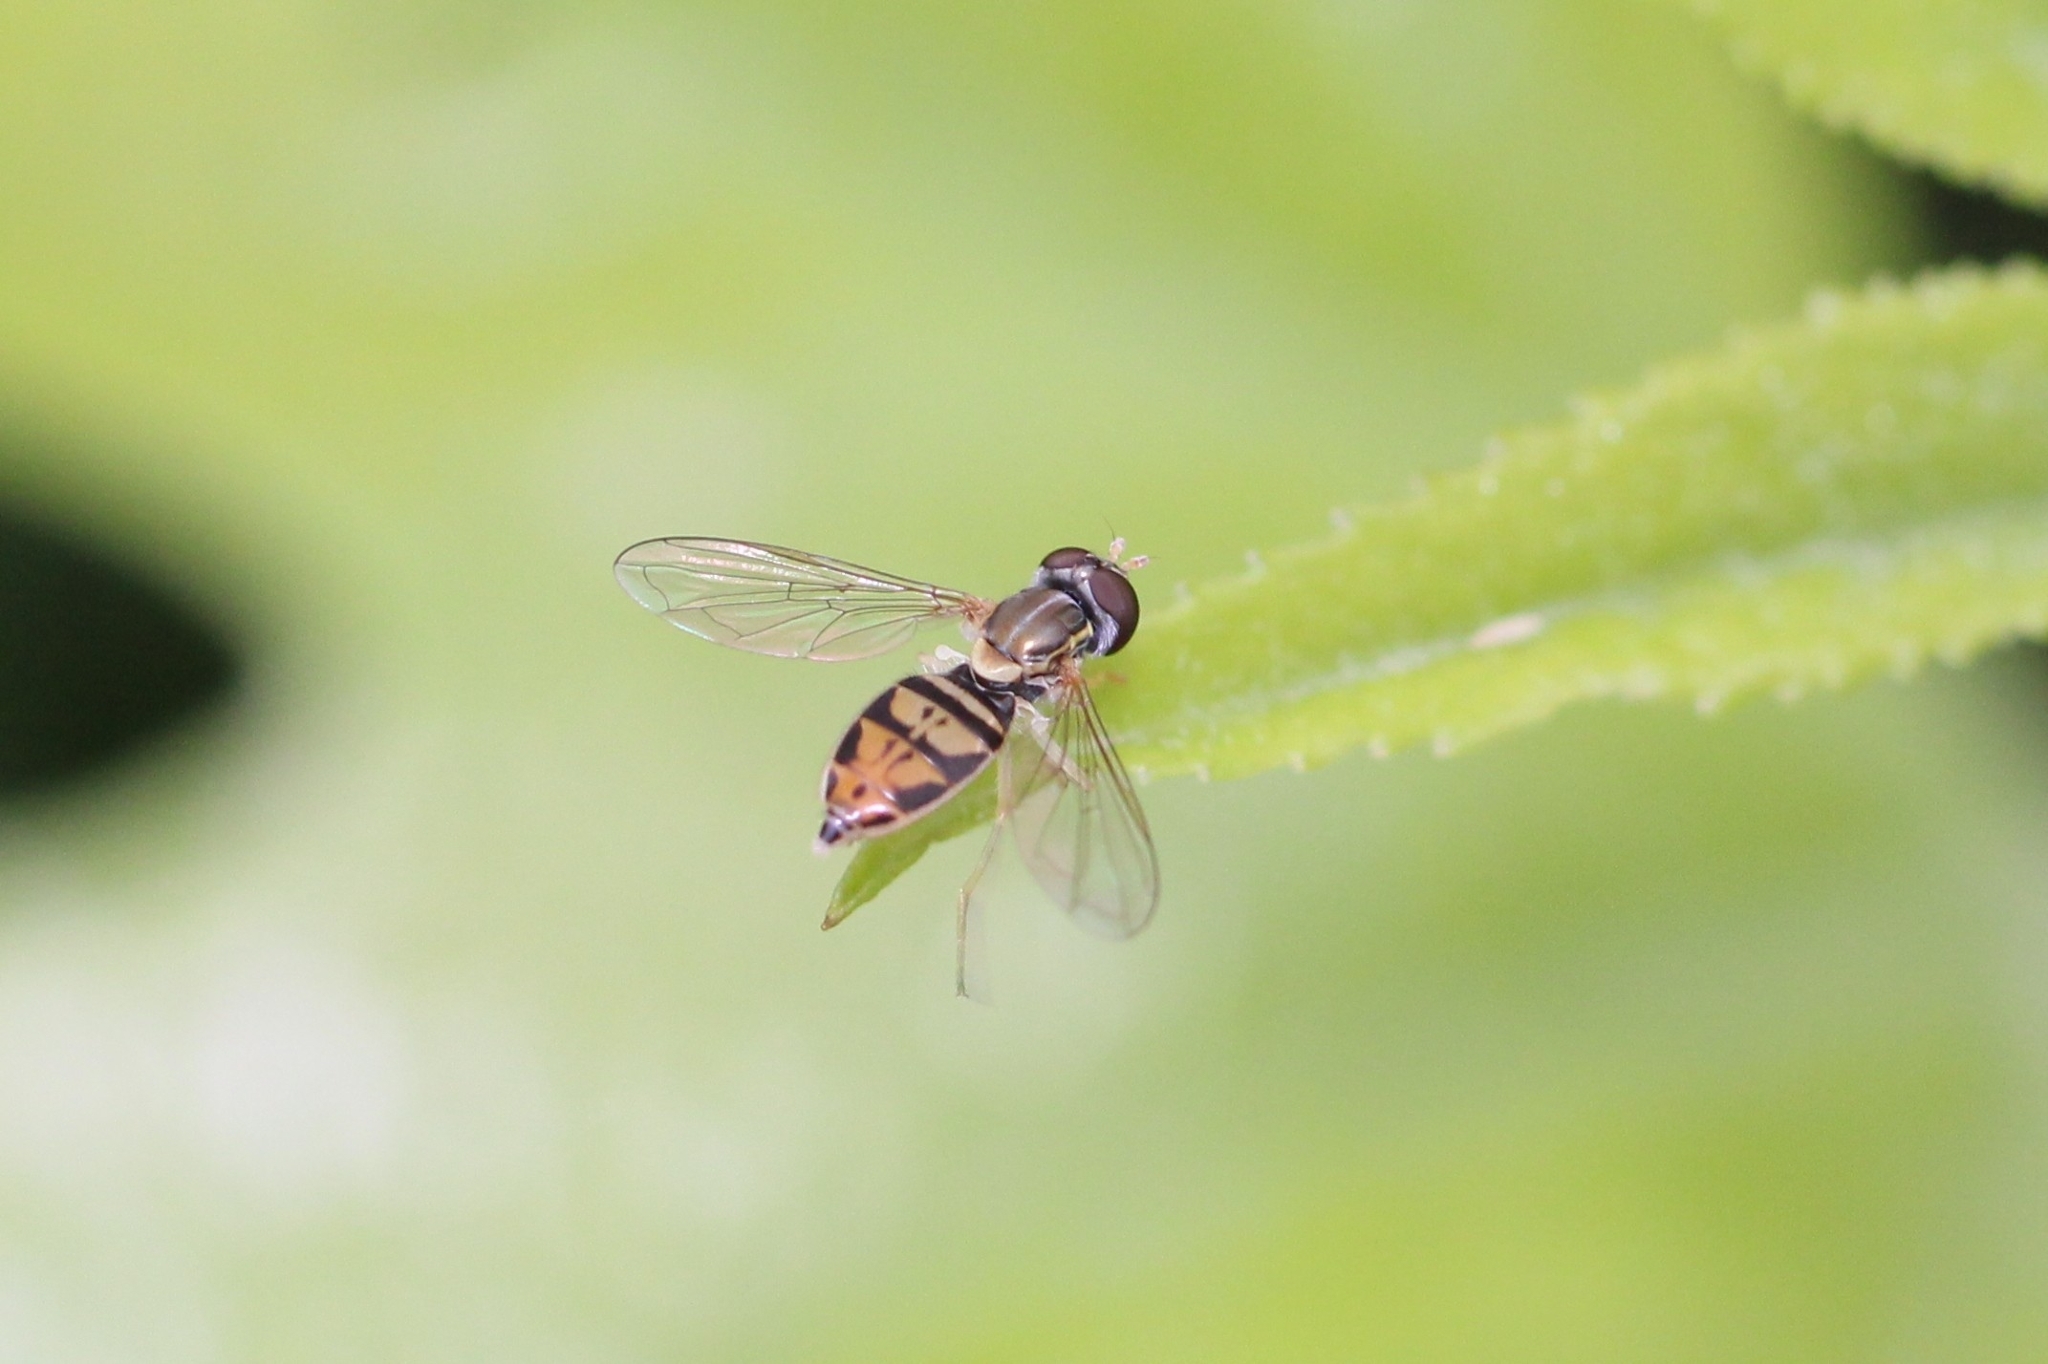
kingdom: Animalia
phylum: Arthropoda
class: Insecta
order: Diptera
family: Syrphidae
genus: Toxomerus
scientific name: Toxomerus marginatus
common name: Syrphid fly
